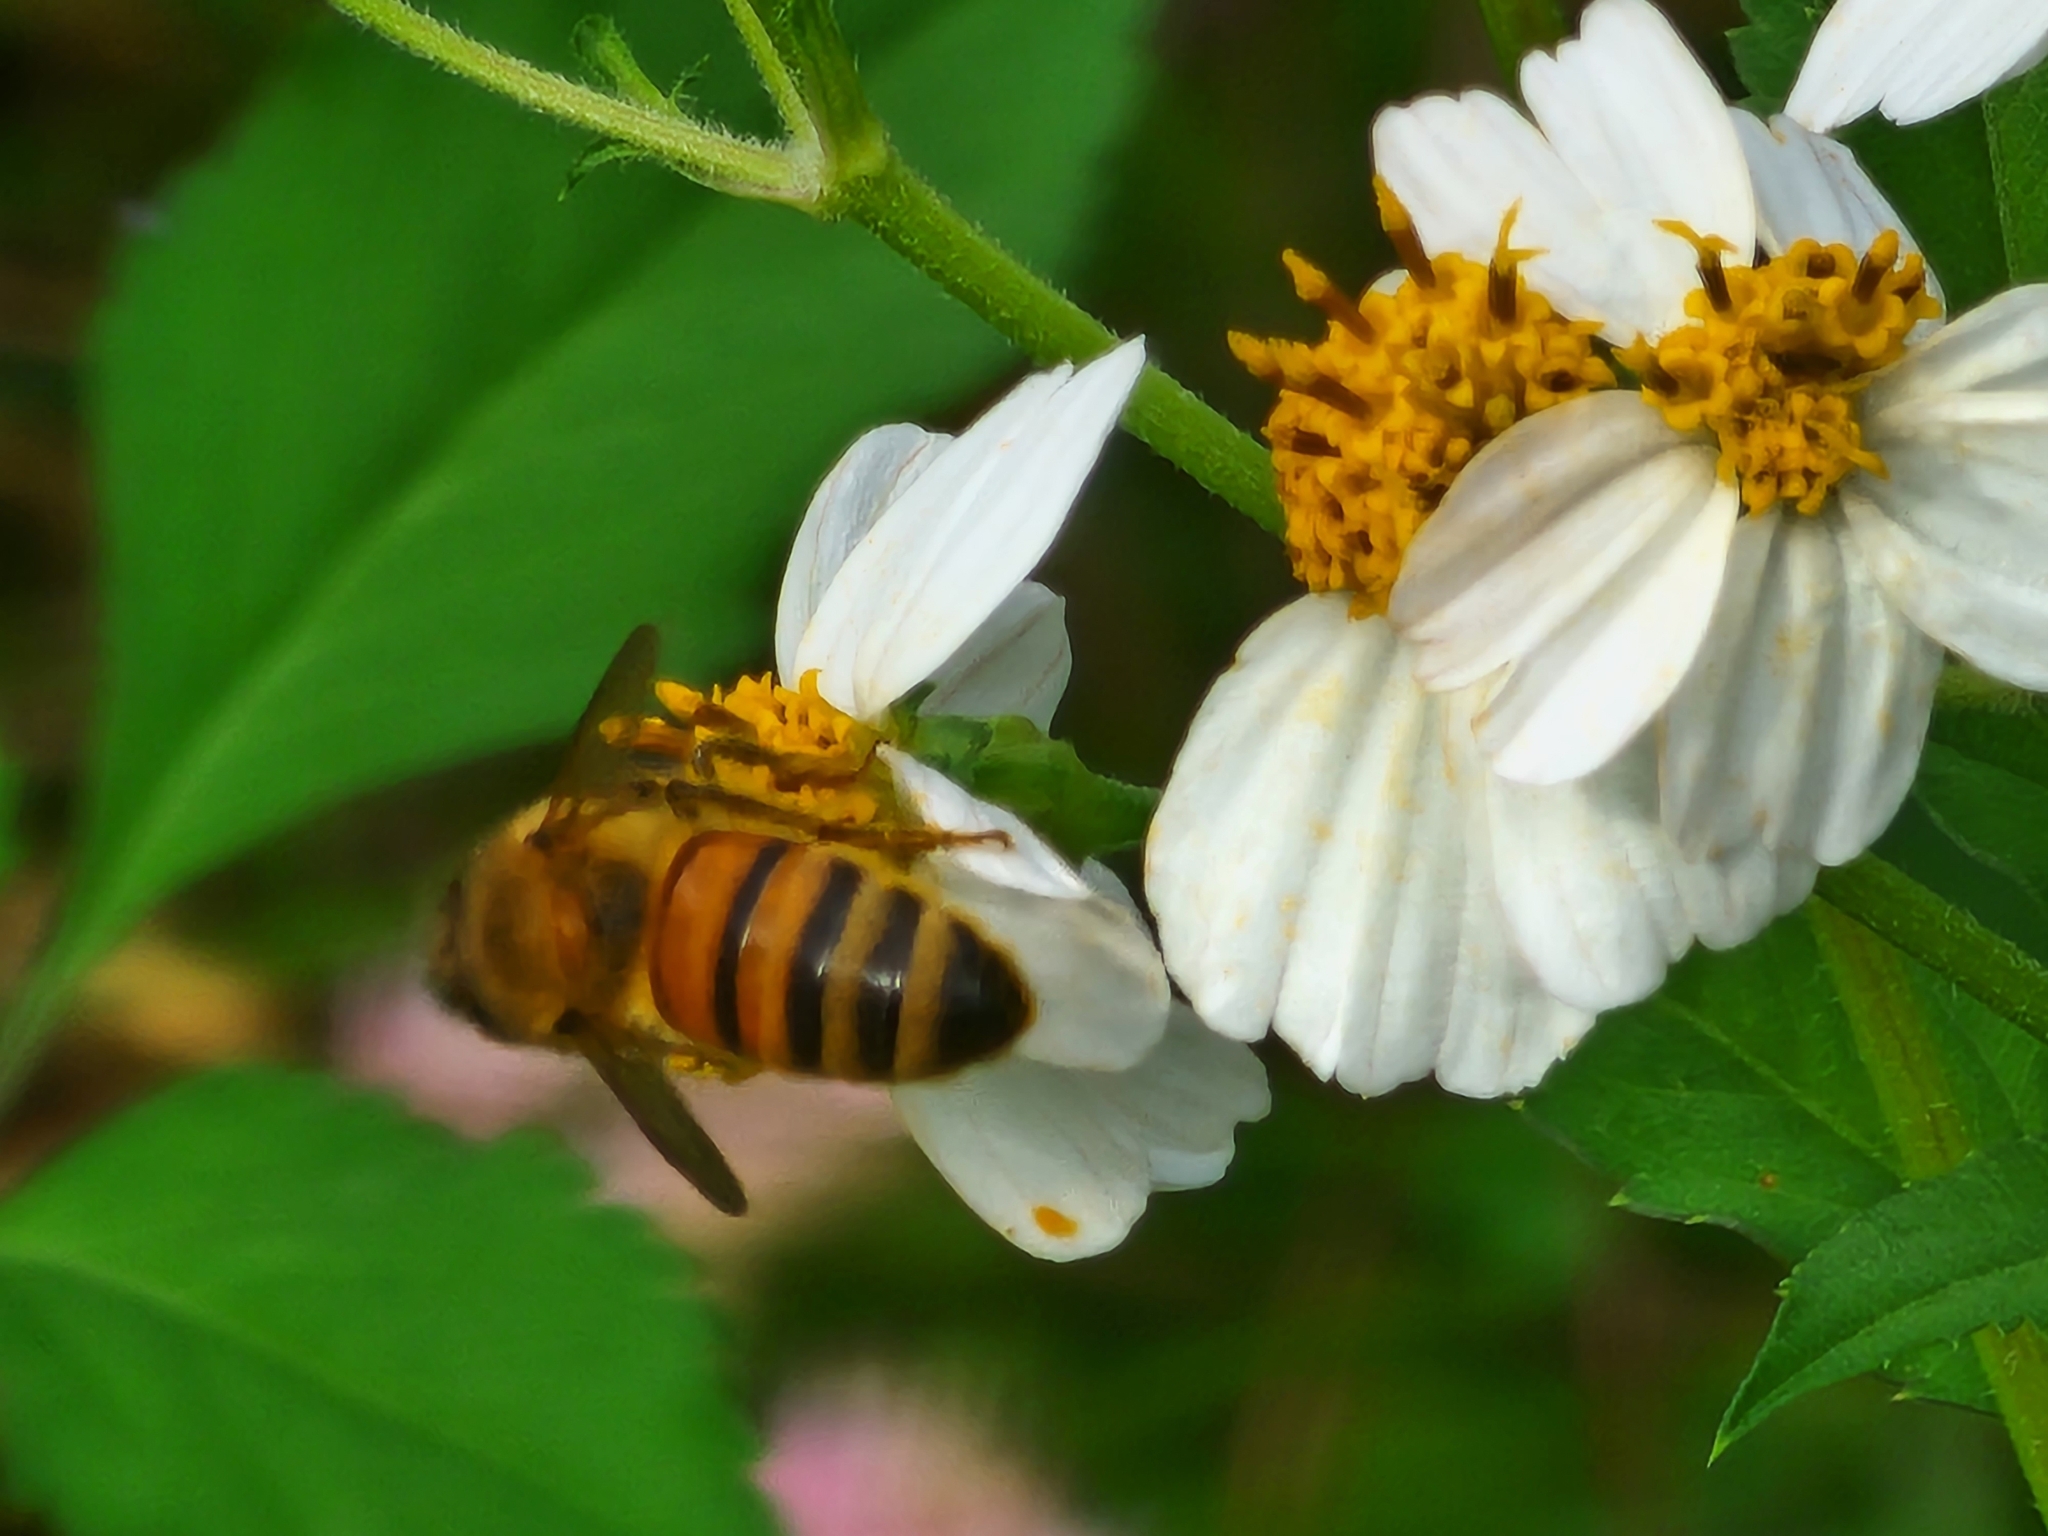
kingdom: Animalia
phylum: Arthropoda
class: Insecta
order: Hymenoptera
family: Apidae
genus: Apis
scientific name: Apis mellifera
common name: Honey bee
